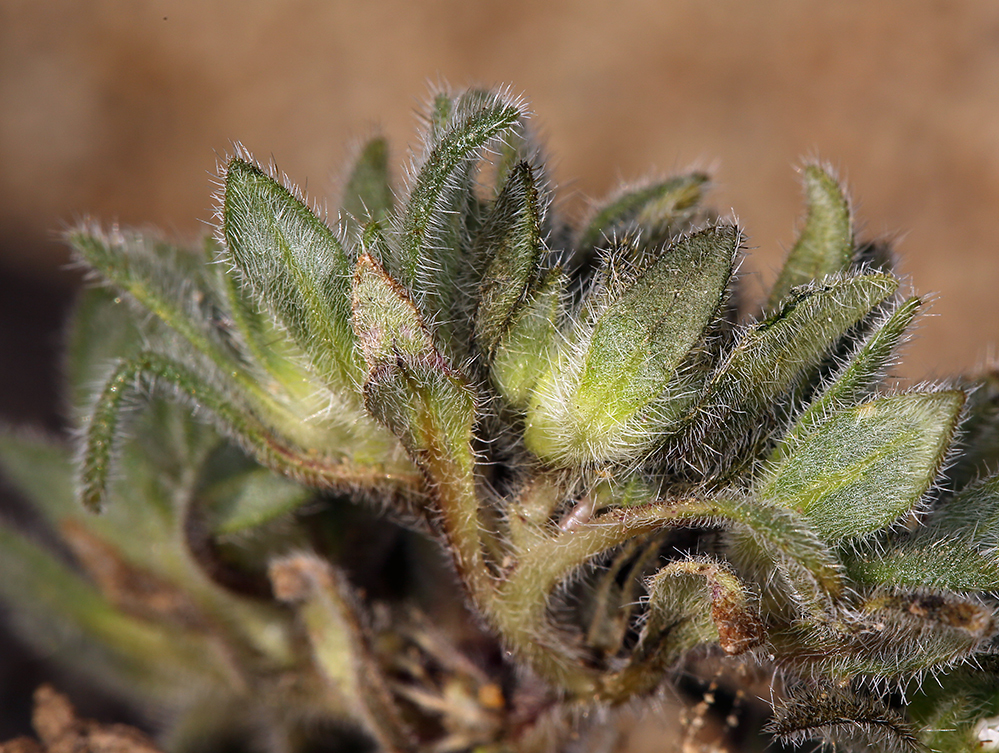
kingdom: Plantae
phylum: Tracheophyta
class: Magnoliopsida
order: Boraginales
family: Namaceae
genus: Nama
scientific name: Nama densa
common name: Leafy nama
